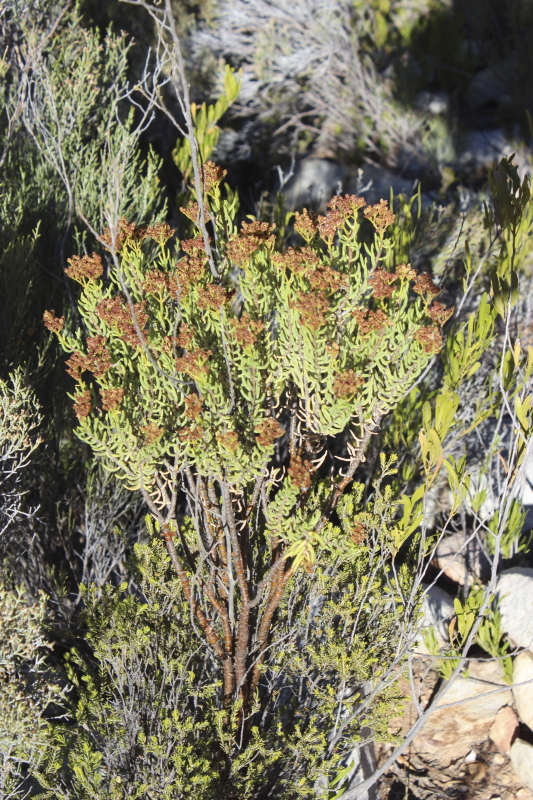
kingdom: Plantae
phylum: Tracheophyta
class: Magnoliopsida
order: Saxifragales
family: Crassulaceae
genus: Crassula
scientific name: Crassula tetragona
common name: Pygmyweed
